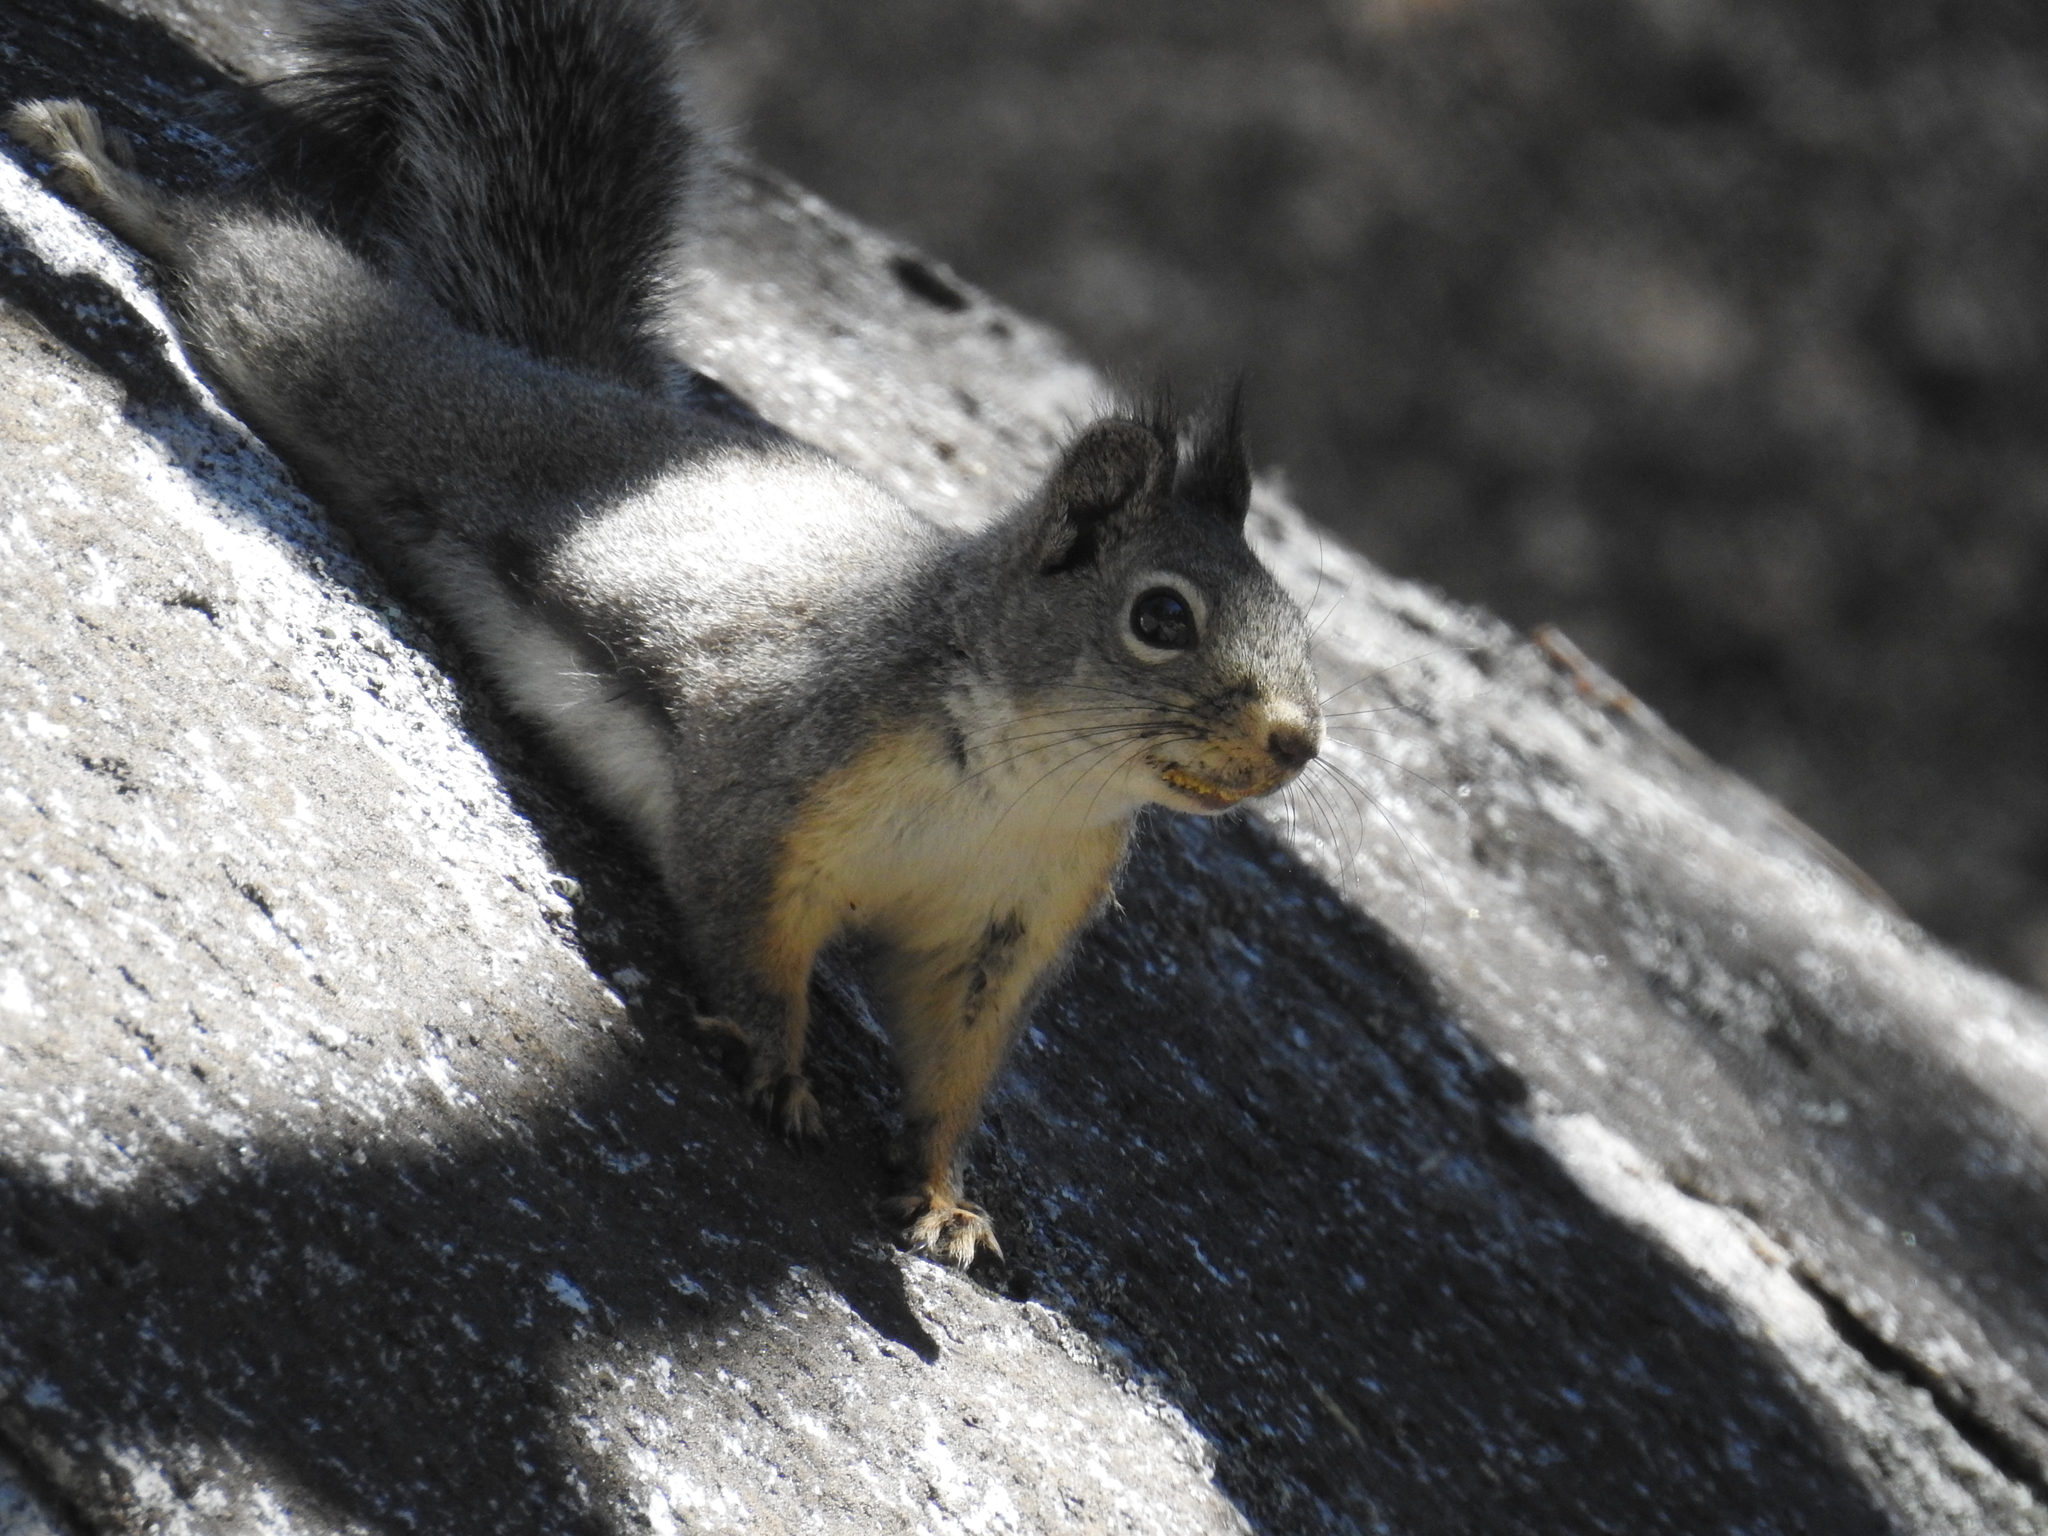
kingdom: Animalia
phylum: Chordata
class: Mammalia
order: Rodentia
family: Sciuridae
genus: Tamiasciurus
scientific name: Tamiasciurus douglasii
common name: Douglas's squirrel
